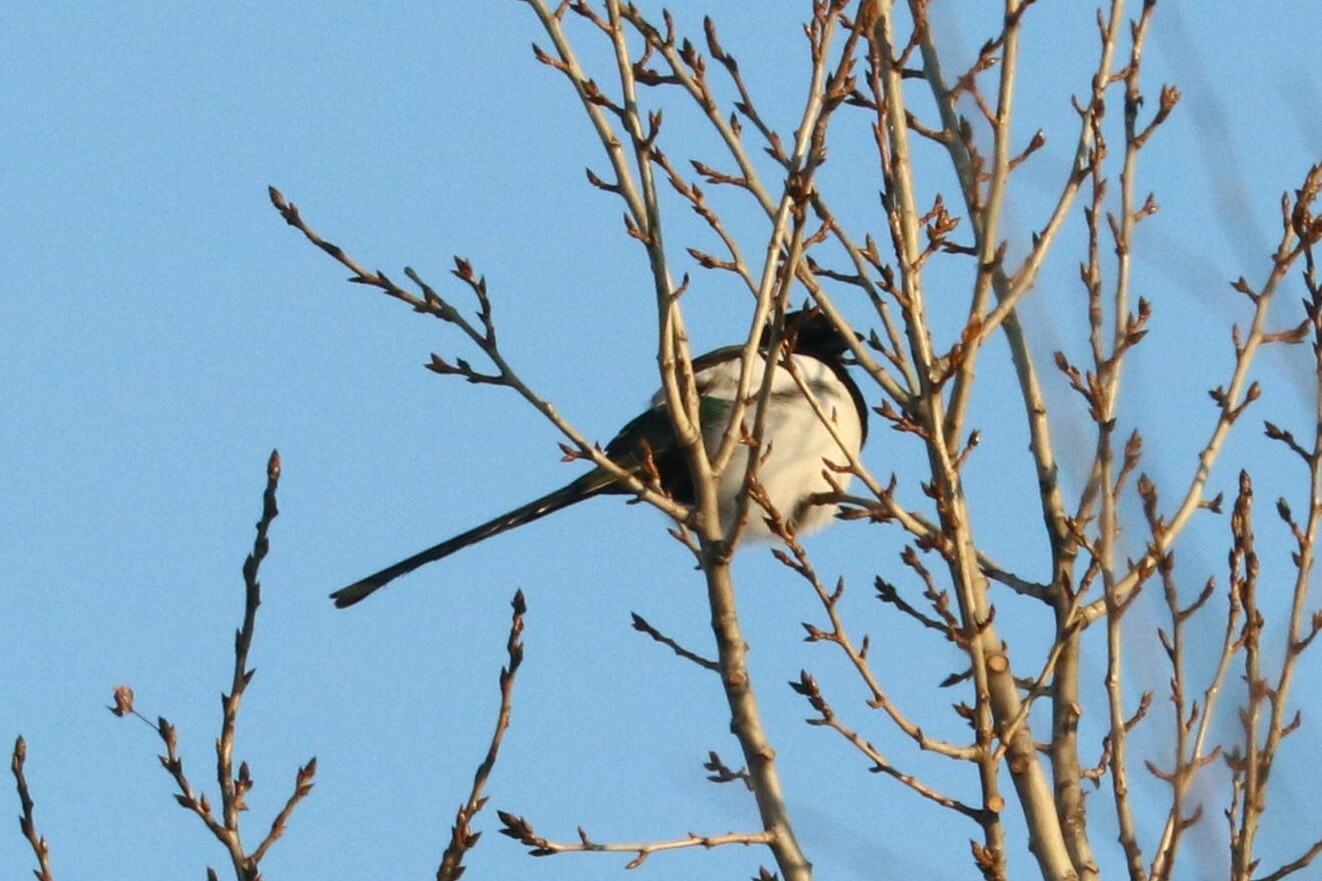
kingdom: Animalia
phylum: Chordata
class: Aves
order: Passeriformes
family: Corvidae
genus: Pica
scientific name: Pica pica
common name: Eurasian magpie
